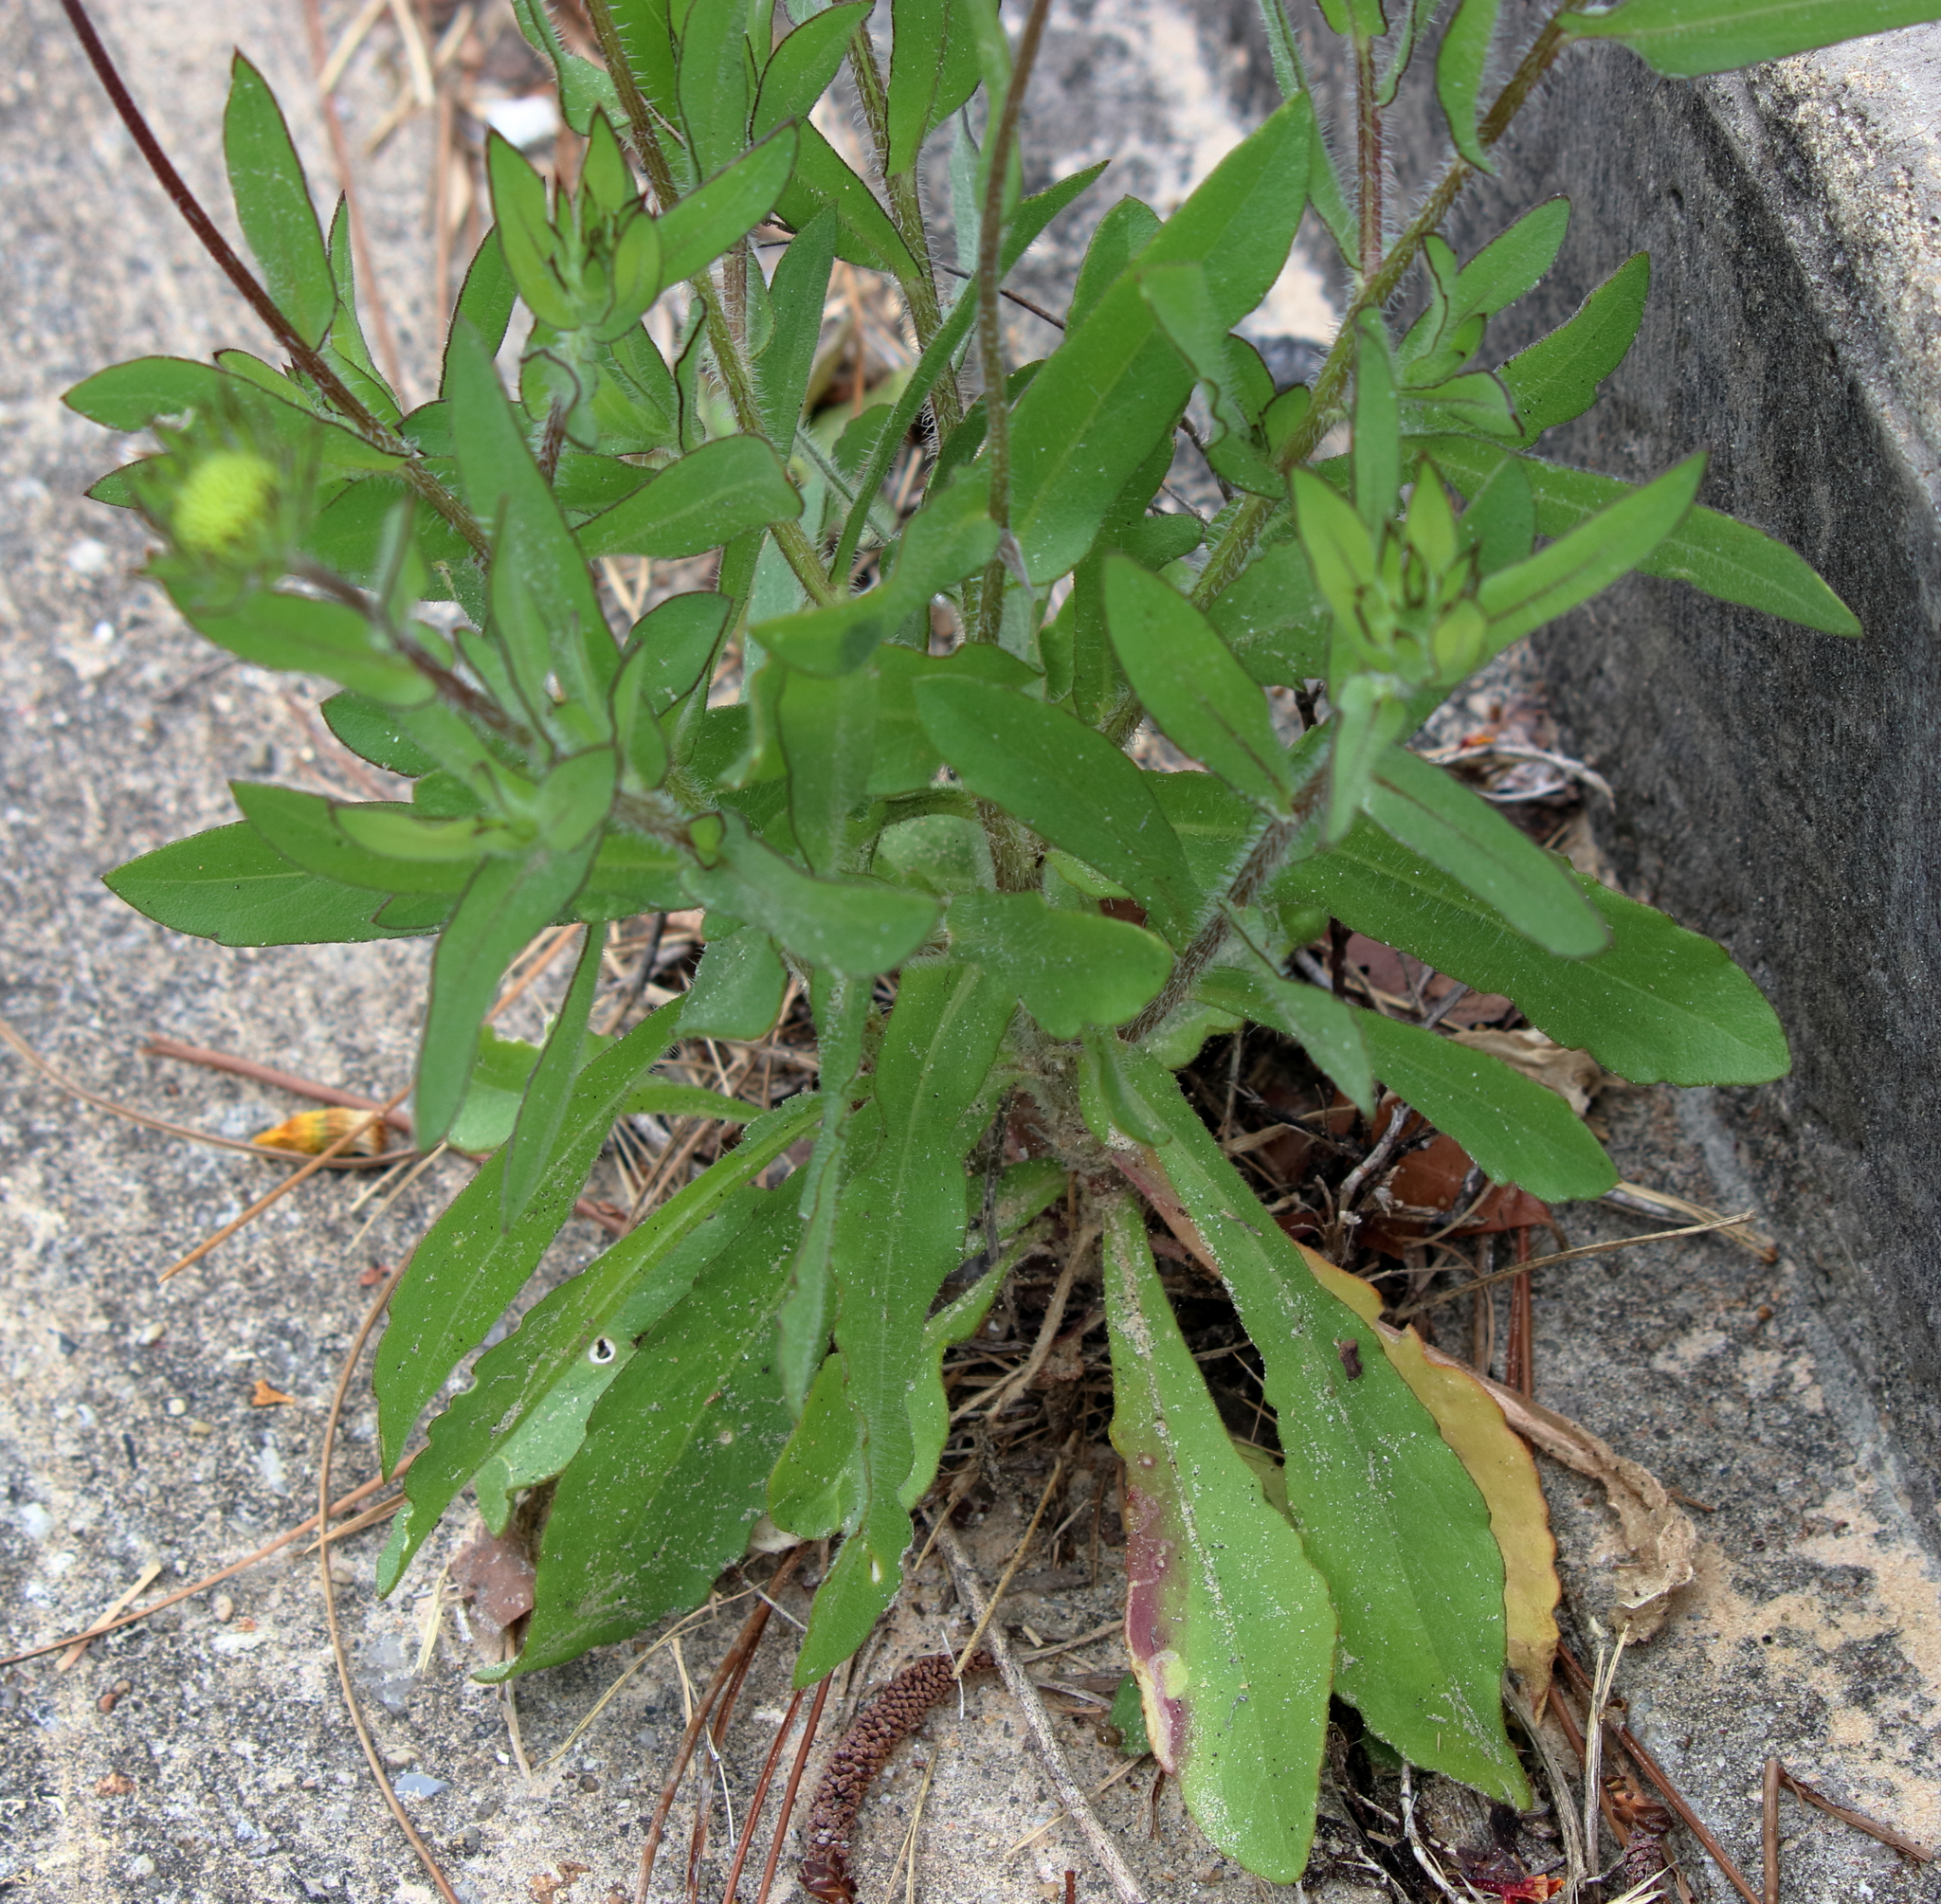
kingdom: Plantae
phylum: Tracheophyta
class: Magnoliopsida
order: Asterales
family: Asteraceae
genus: Gaillardia
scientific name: Gaillardia aestivalis
